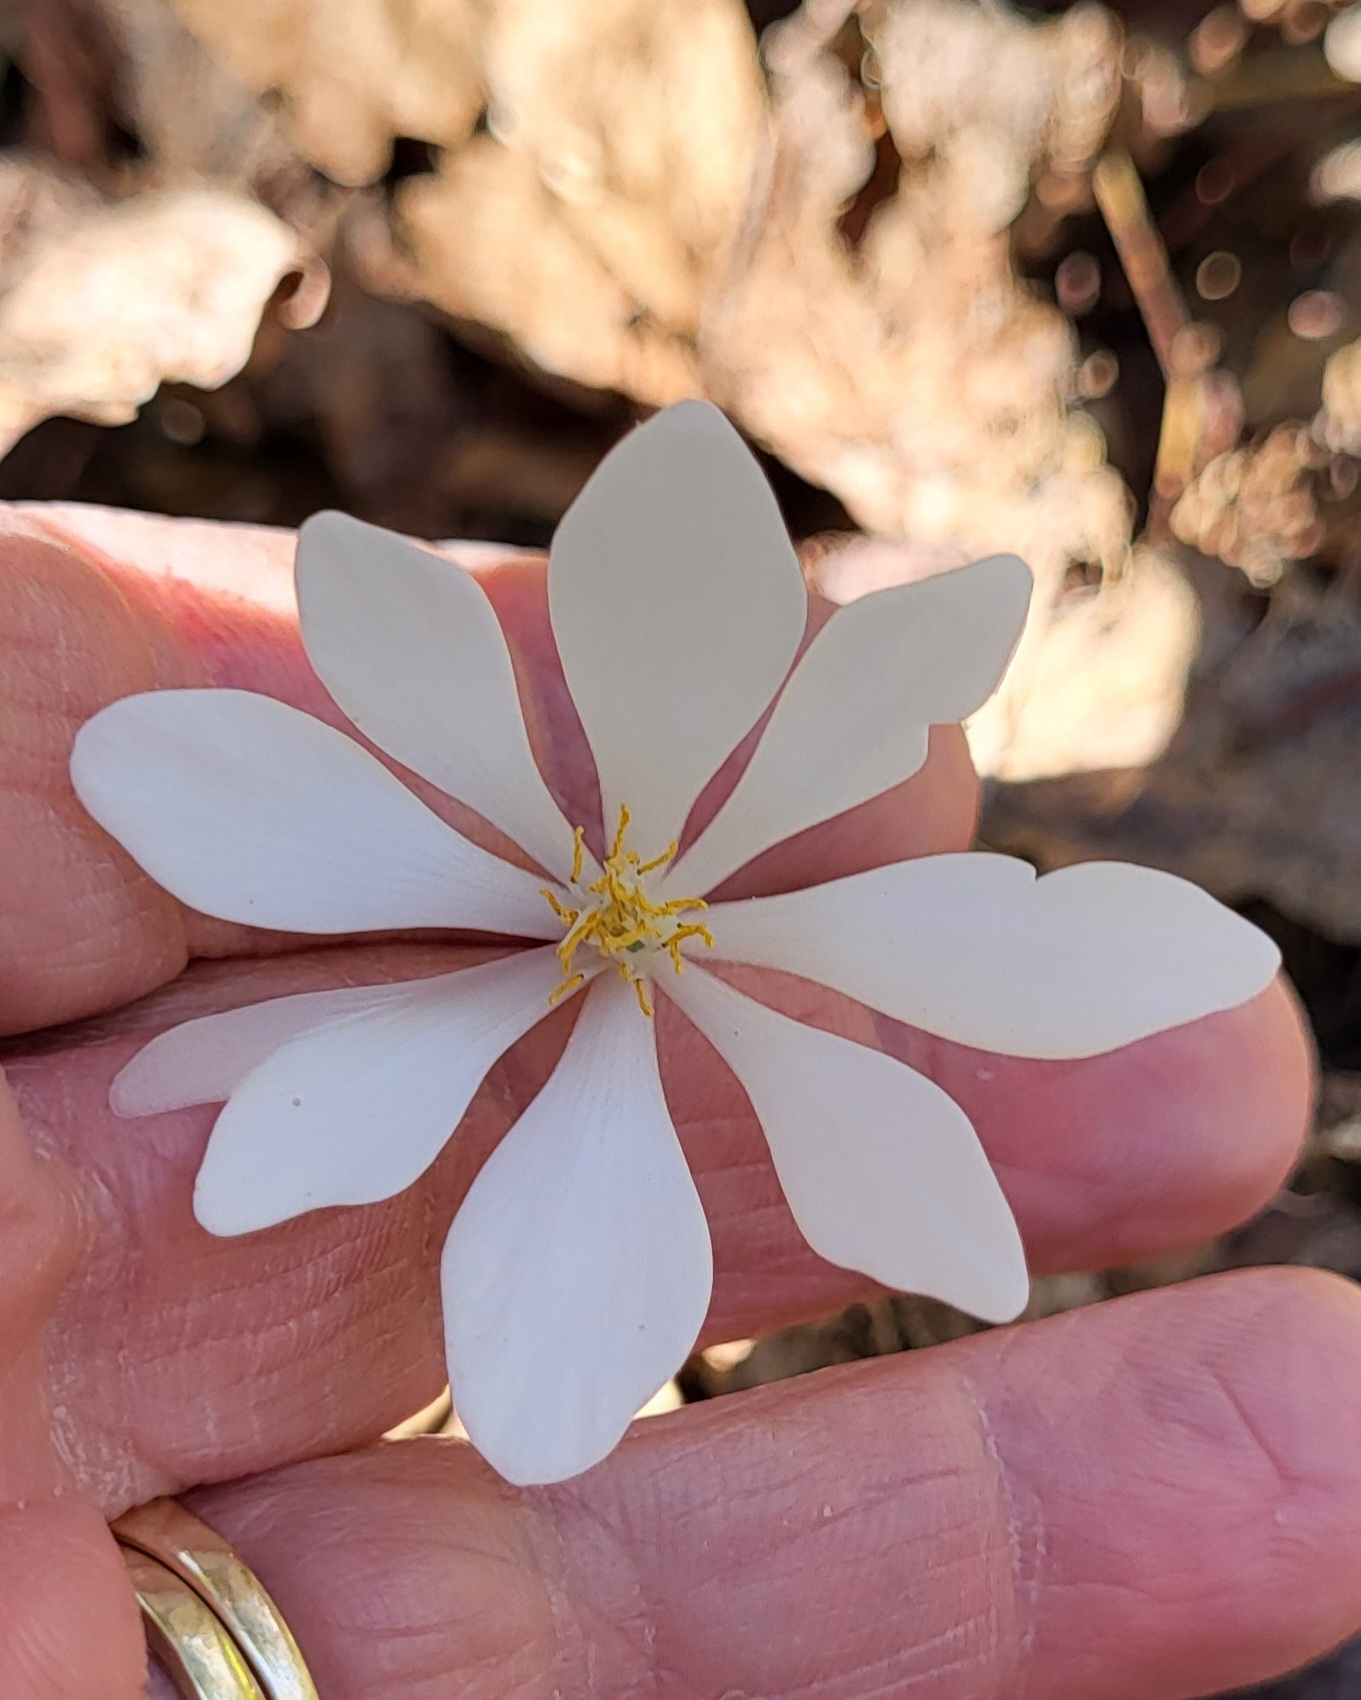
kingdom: Plantae
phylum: Tracheophyta
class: Magnoliopsida
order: Ranunculales
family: Papaveraceae
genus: Sanguinaria
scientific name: Sanguinaria canadensis
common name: Bloodroot
